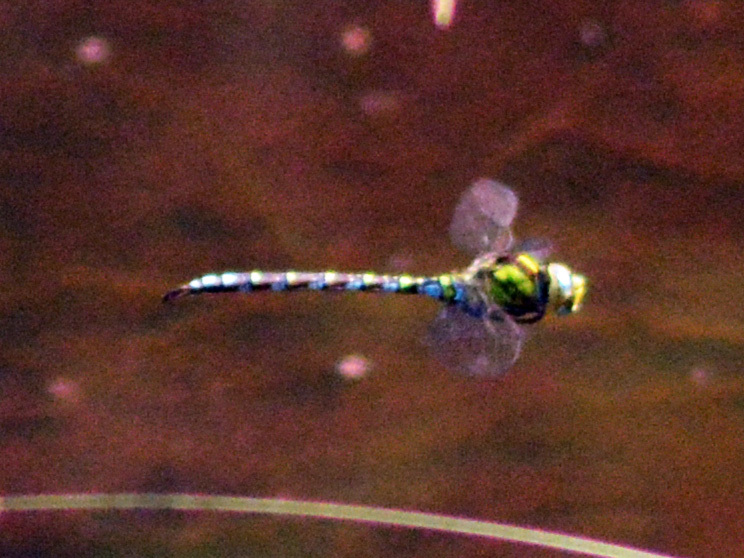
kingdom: Animalia
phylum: Arthropoda
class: Insecta
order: Odonata
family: Aeshnidae
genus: Aeshna
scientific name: Aeshna cyanea
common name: Southern hawker
